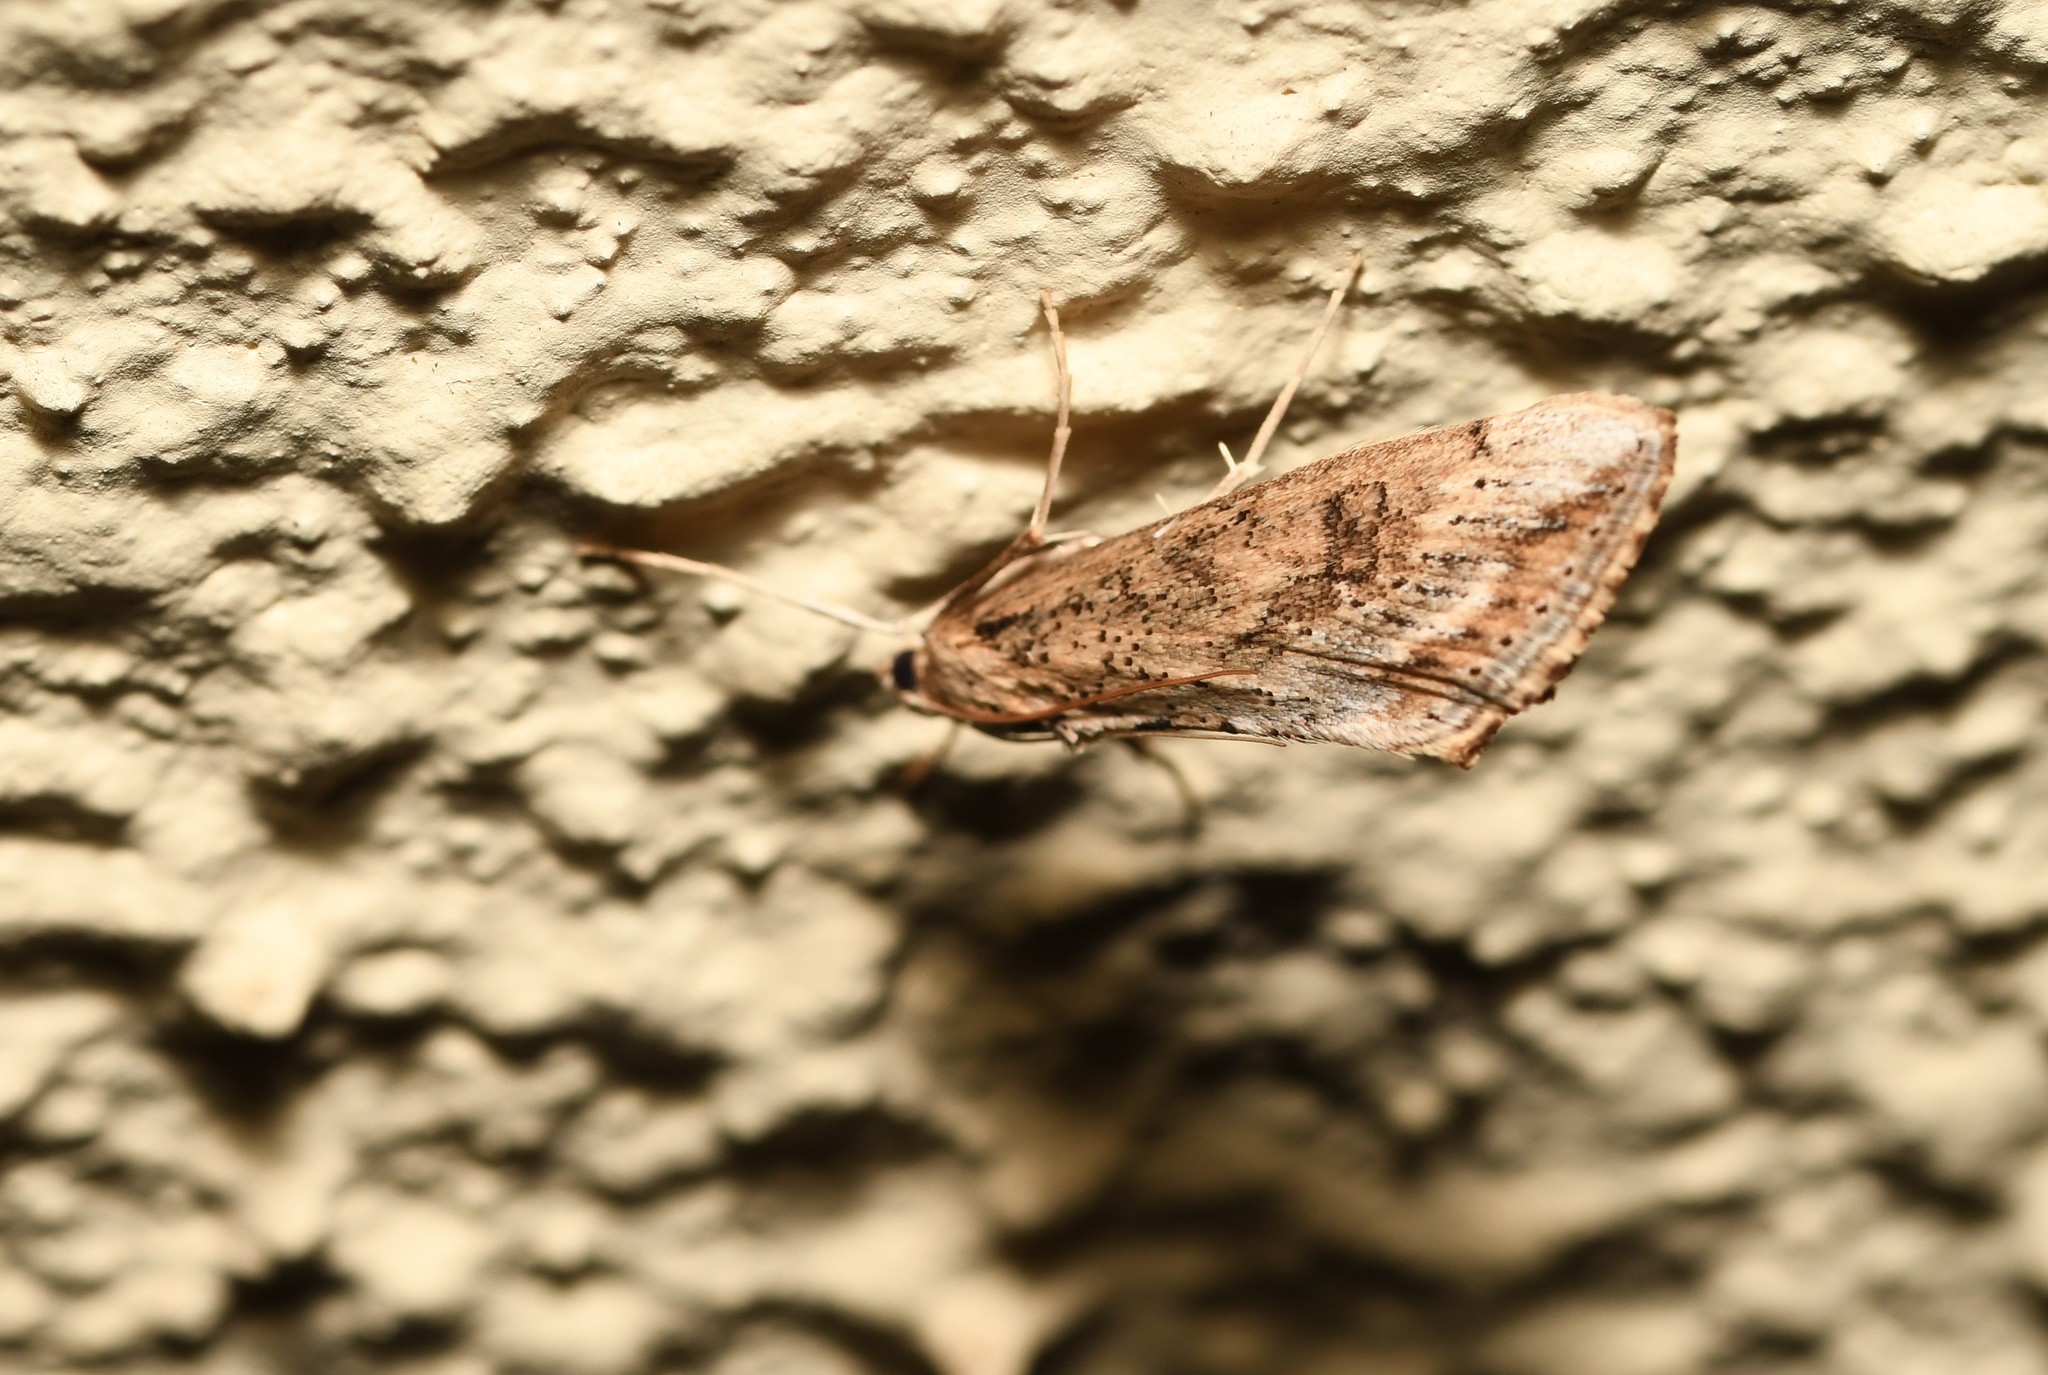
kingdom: Animalia
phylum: Arthropoda
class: Insecta
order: Lepidoptera
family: Crambidae
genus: Evergestis
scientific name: Evergestis isatidalis
